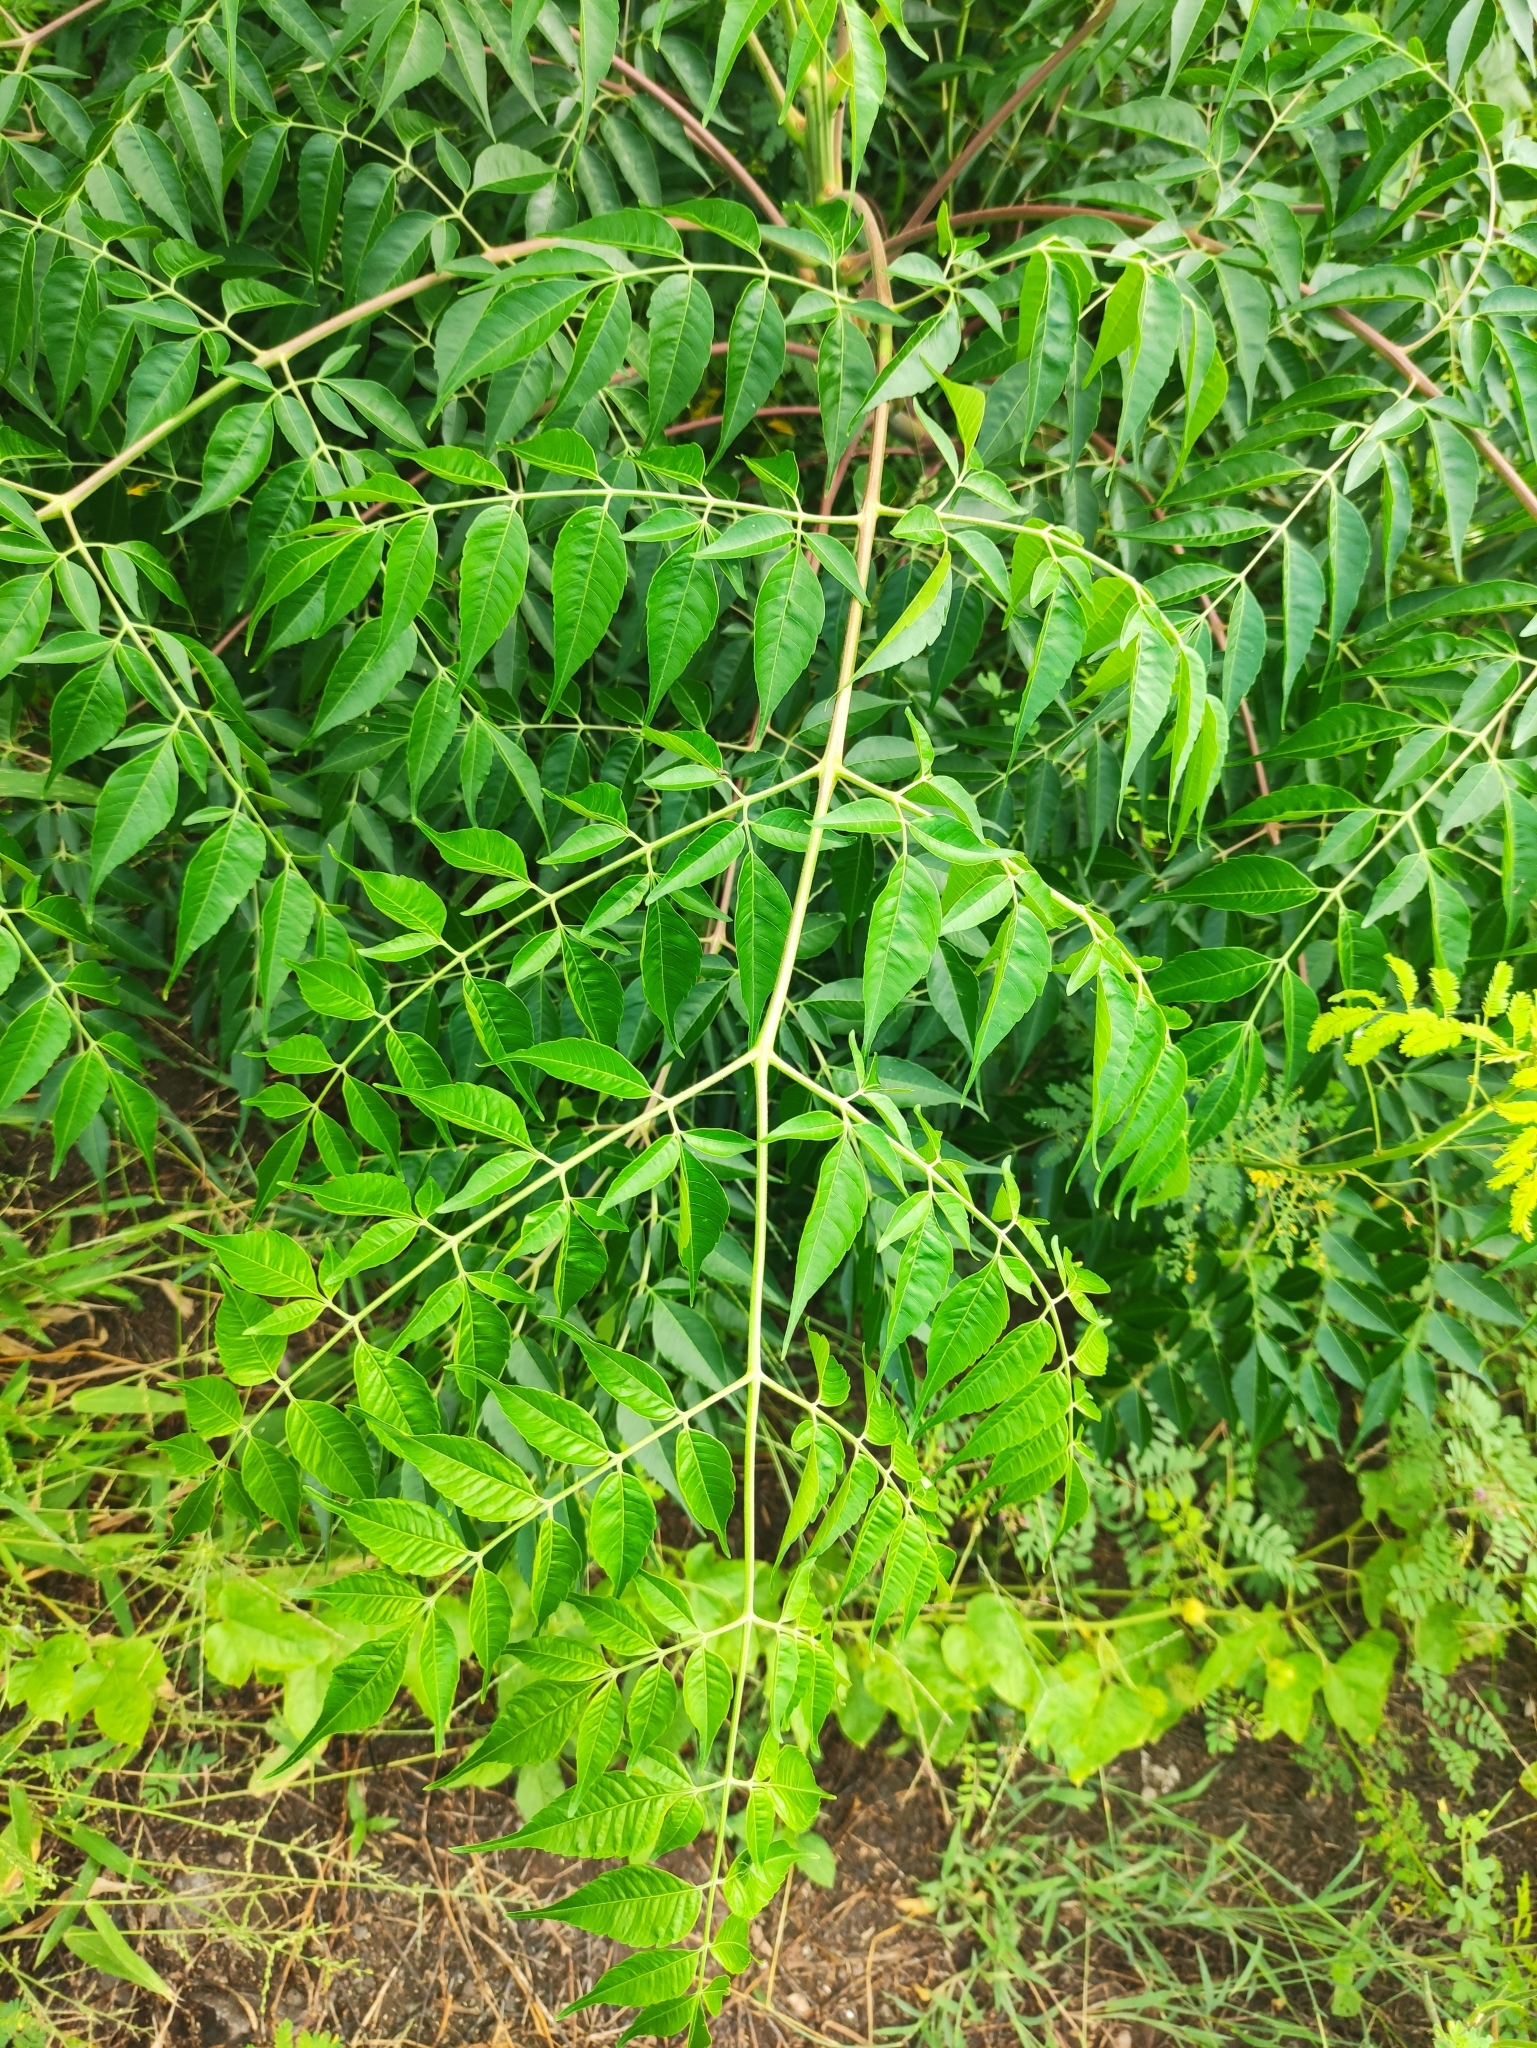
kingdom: Plantae
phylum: Tracheophyta
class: Magnoliopsida
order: Sapindales
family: Meliaceae
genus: Melia
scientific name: Melia azedarach
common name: Chinaberrytree
